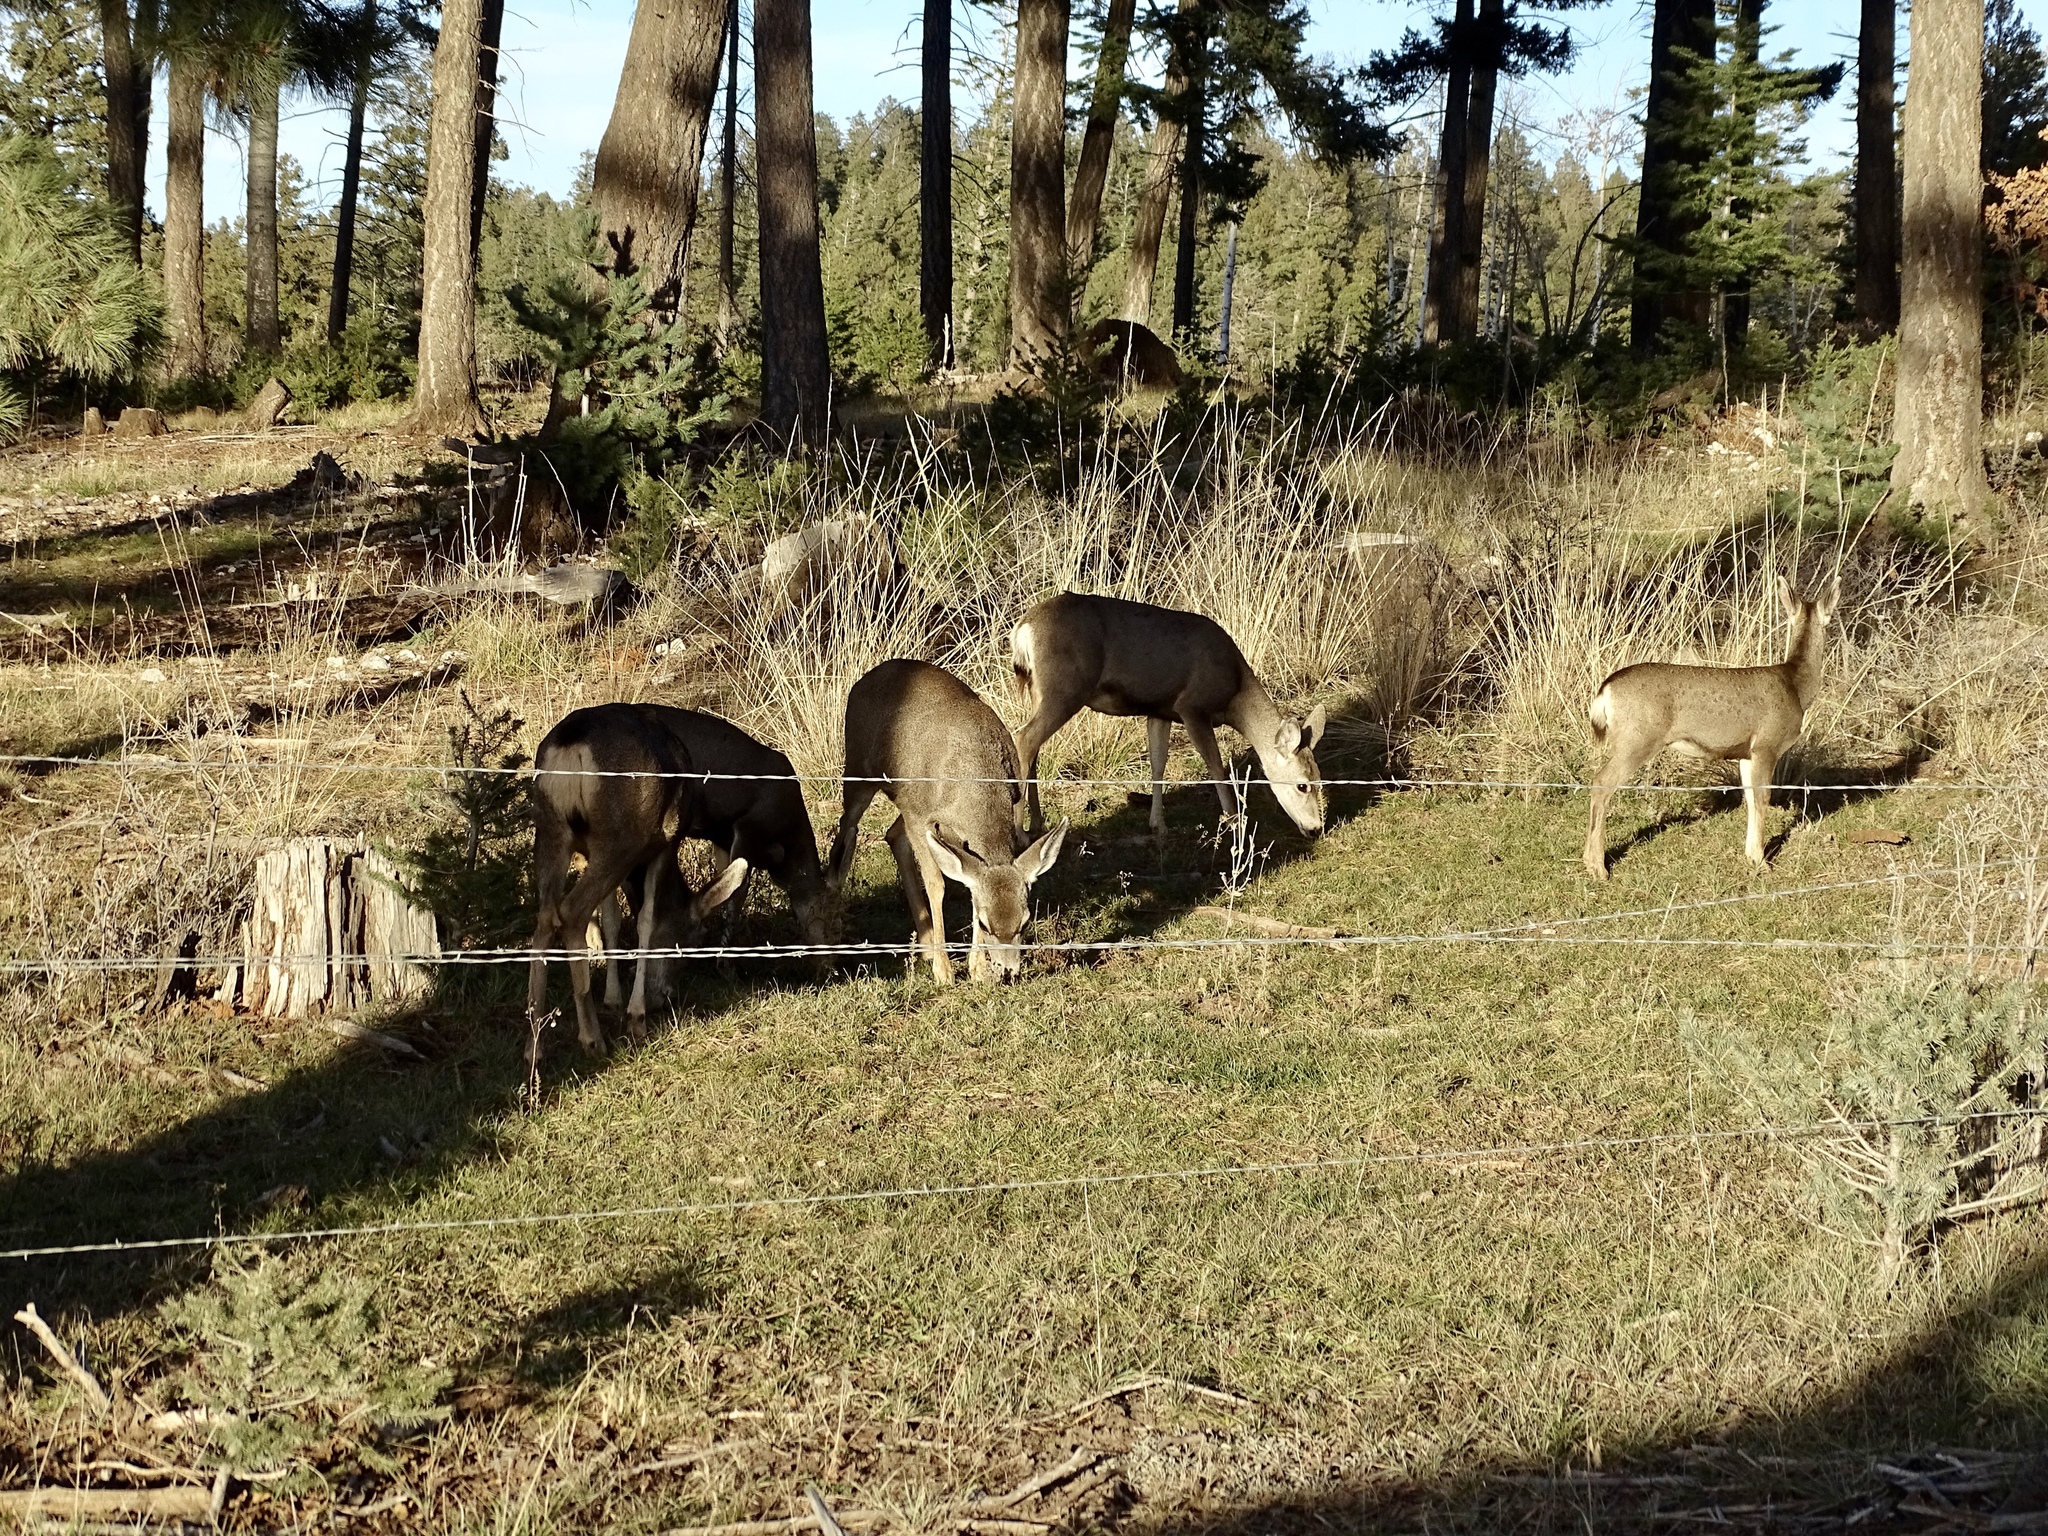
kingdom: Animalia
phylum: Chordata
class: Mammalia
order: Artiodactyla
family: Cervidae
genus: Odocoileus
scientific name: Odocoileus hemionus
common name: Mule deer
